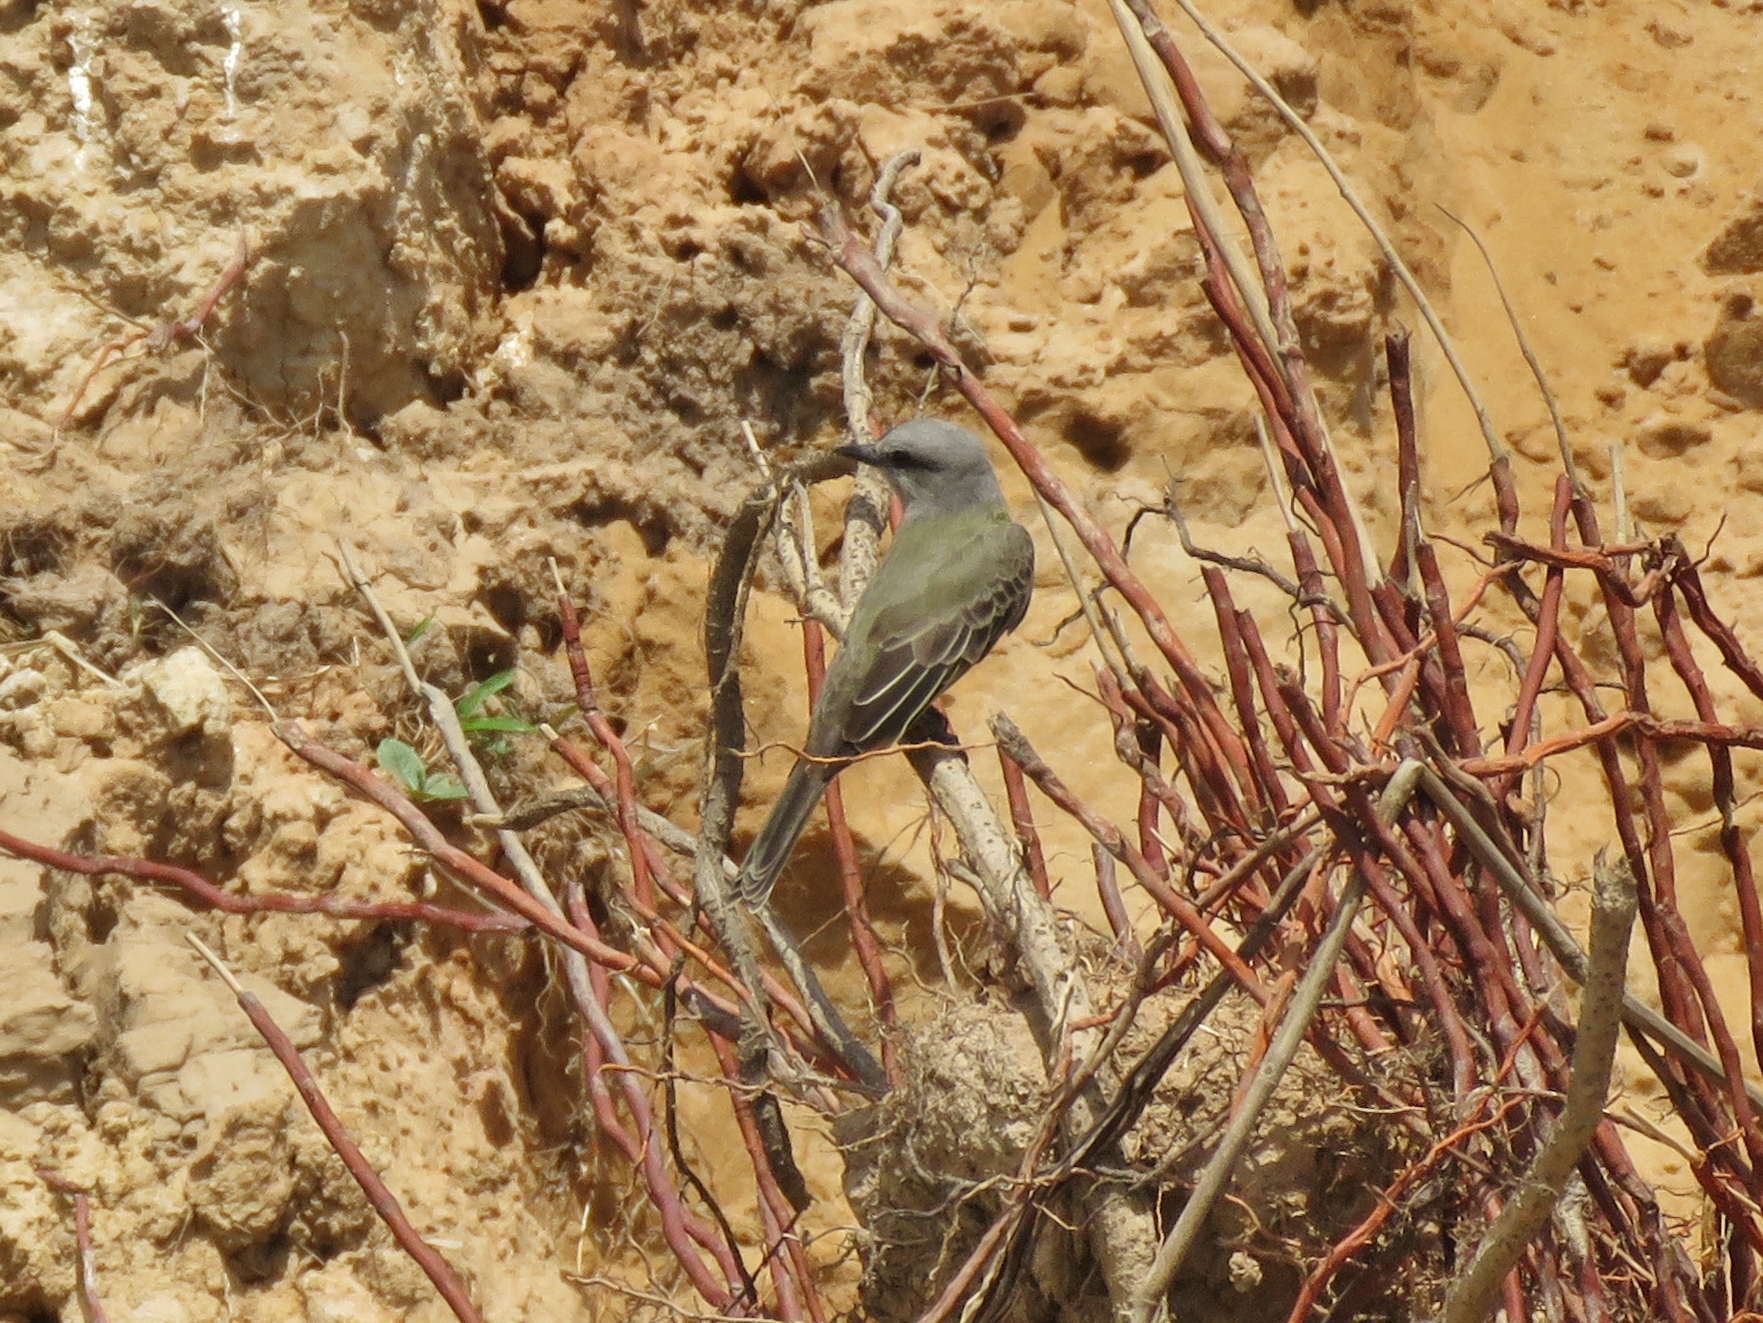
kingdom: Animalia
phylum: Chordata
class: Aves
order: Passeriformes
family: Tyrannidae
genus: Tyrannus
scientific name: Tyrannus melancholicus
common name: Tropical kingbird
